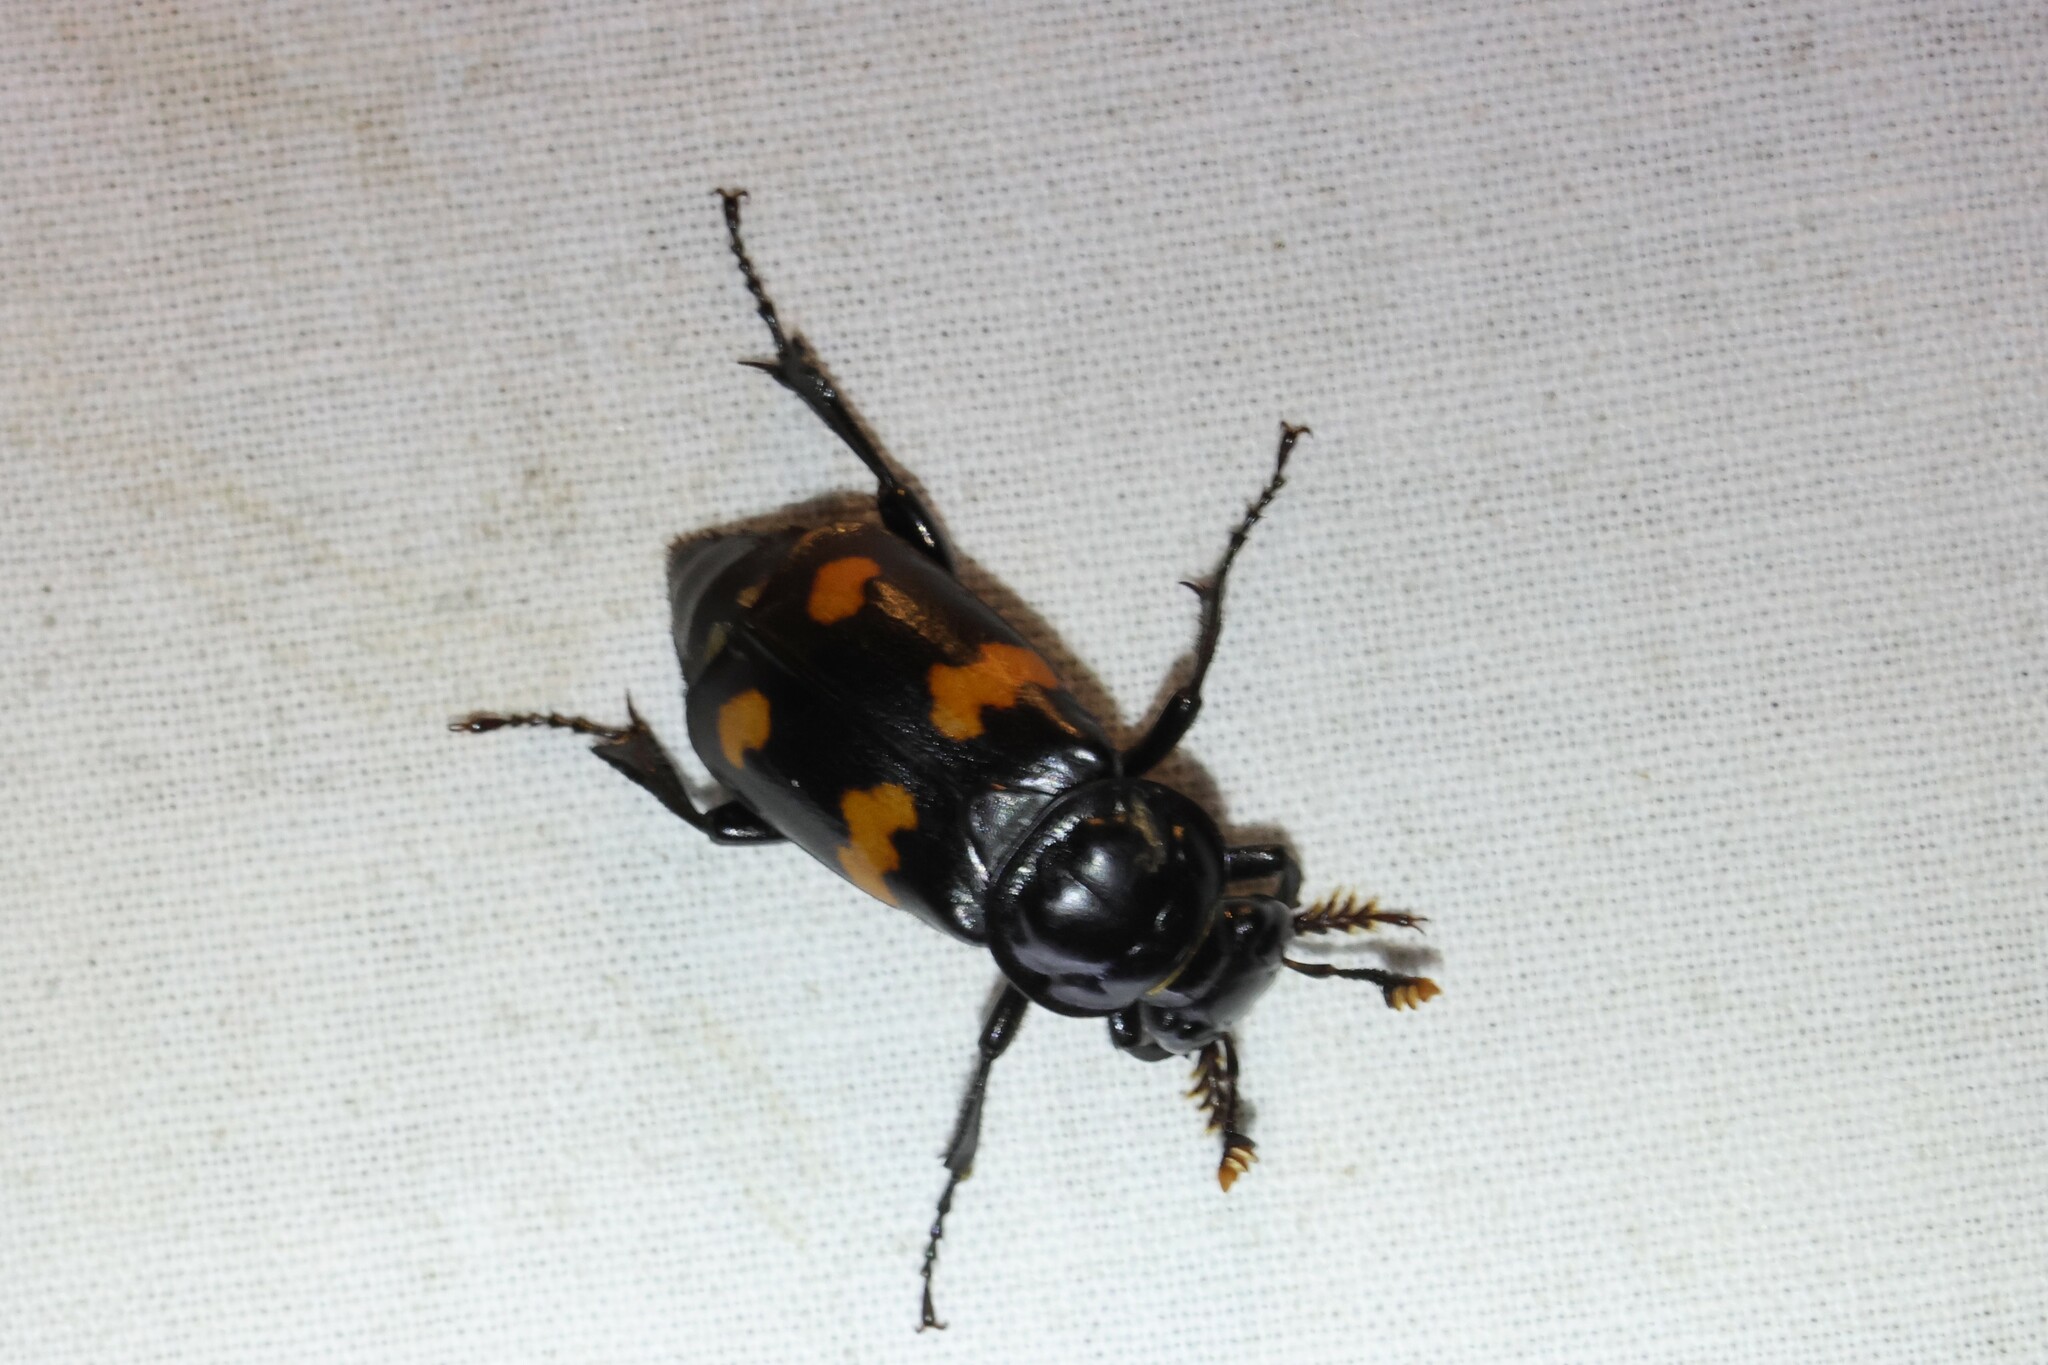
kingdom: Animalia
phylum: Arthropoda
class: Insecta
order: Coleoptera
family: Staphylinidae
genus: Nicrophorus
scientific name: Nicrophorus orbicollis
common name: Roundneck sexton beetle
